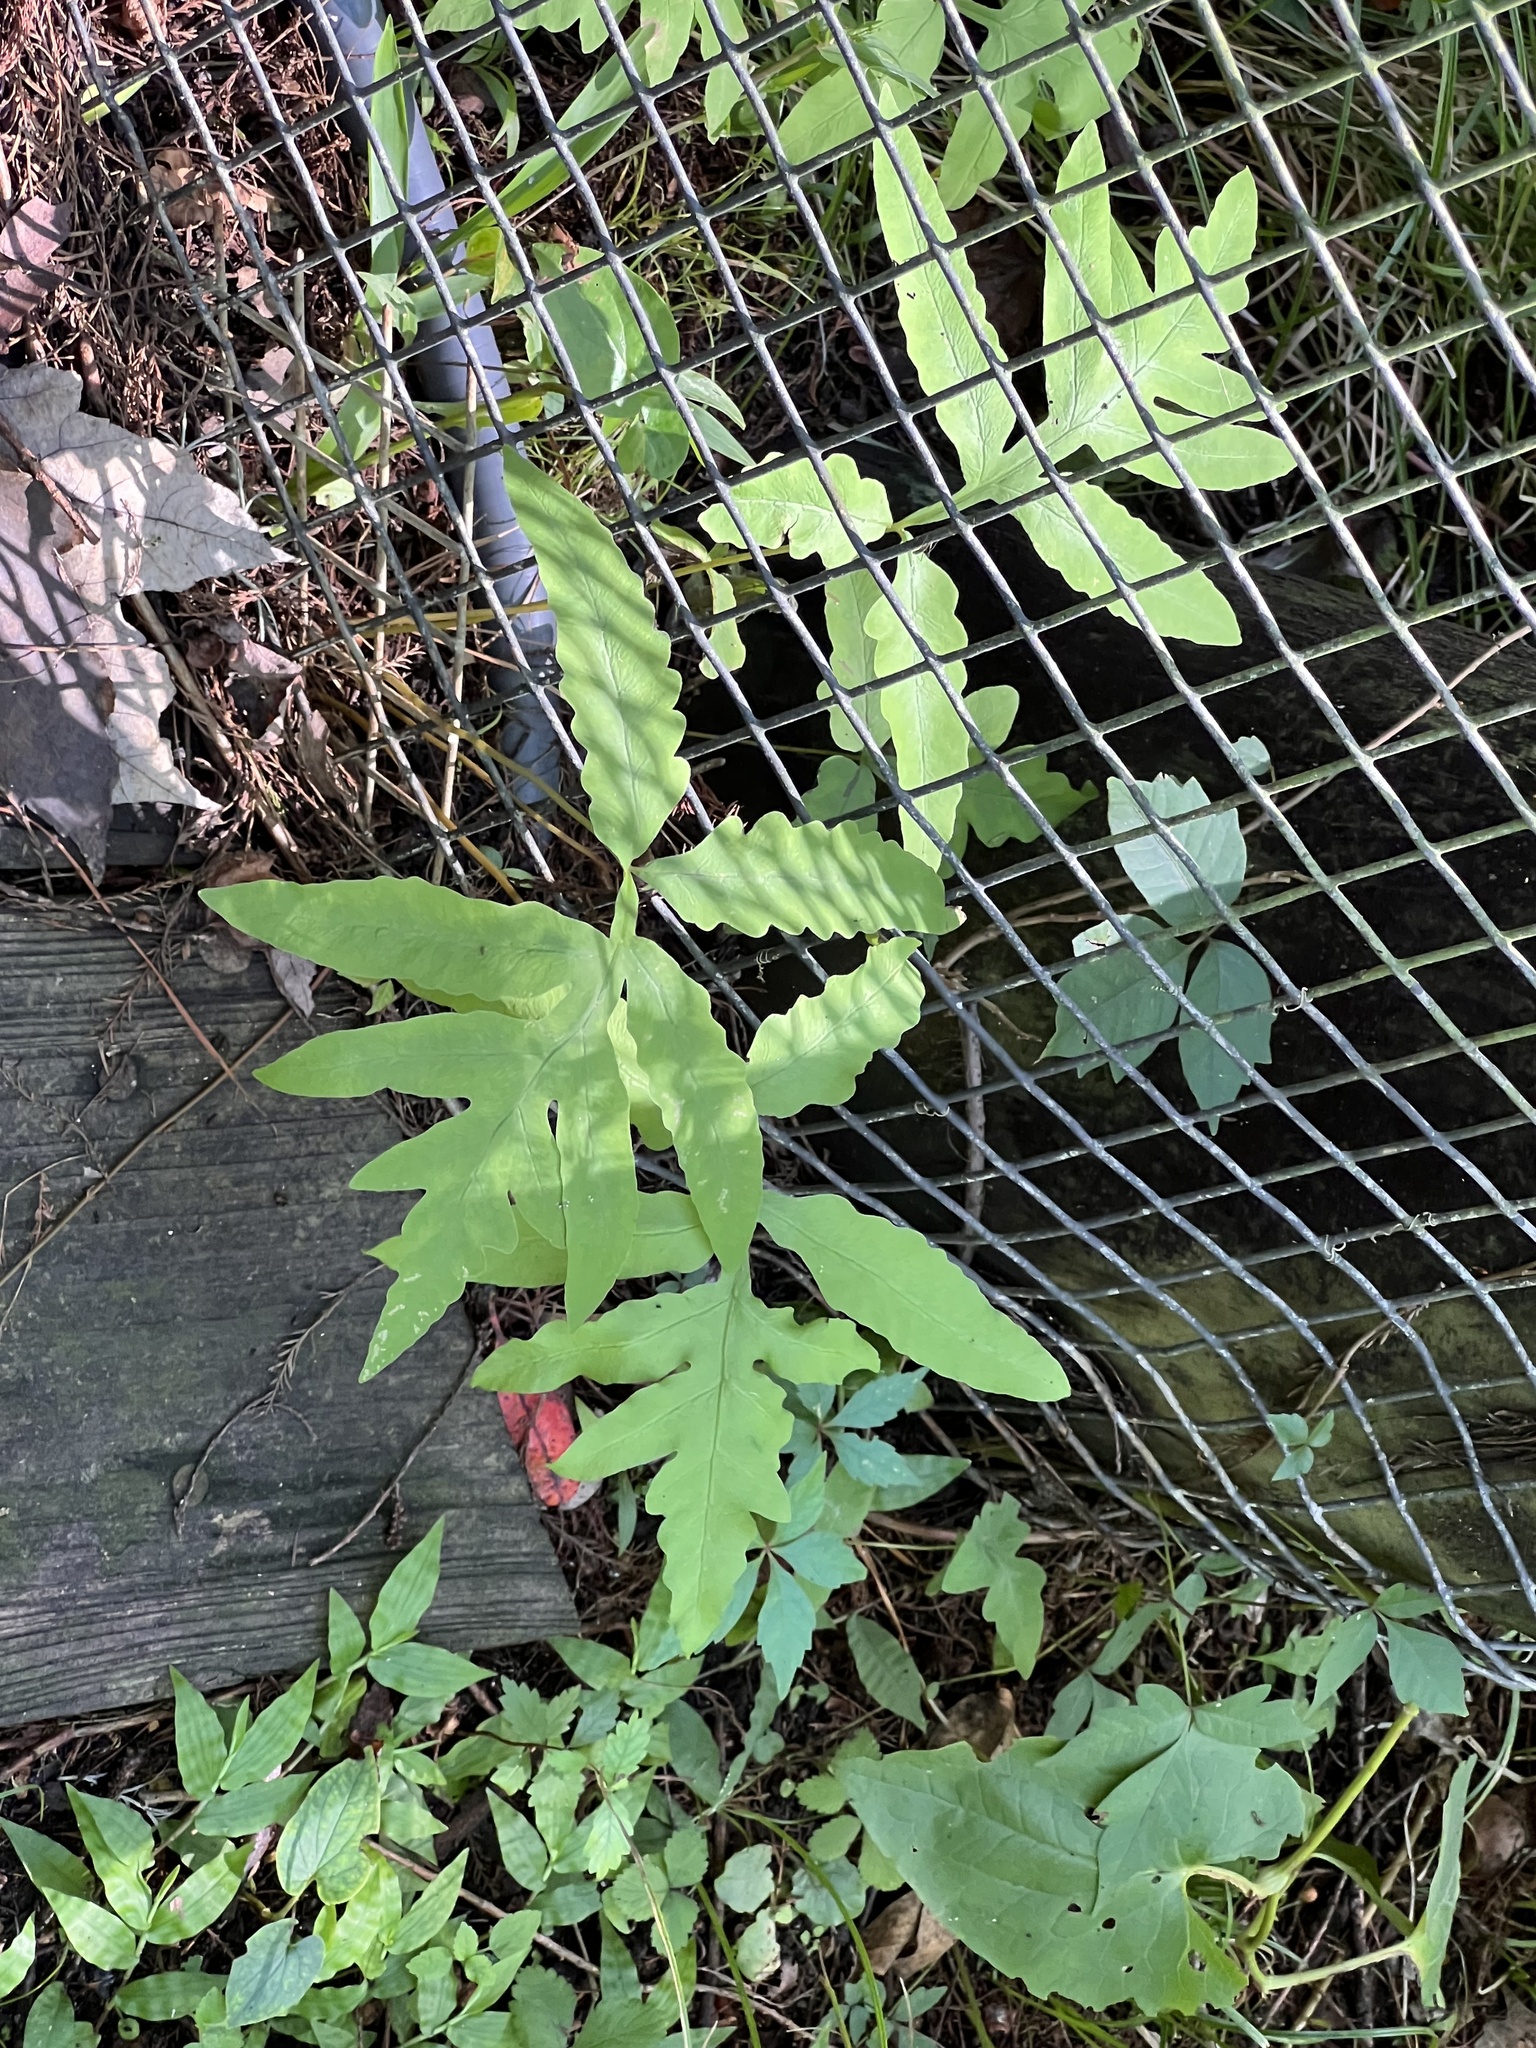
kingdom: Plantae
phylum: Tracheophyta
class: Polypodiopsida
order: Polypodiales
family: Onocleaceae
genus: Onoclea
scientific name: Onoclea sensibilis
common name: Sensitive fern
